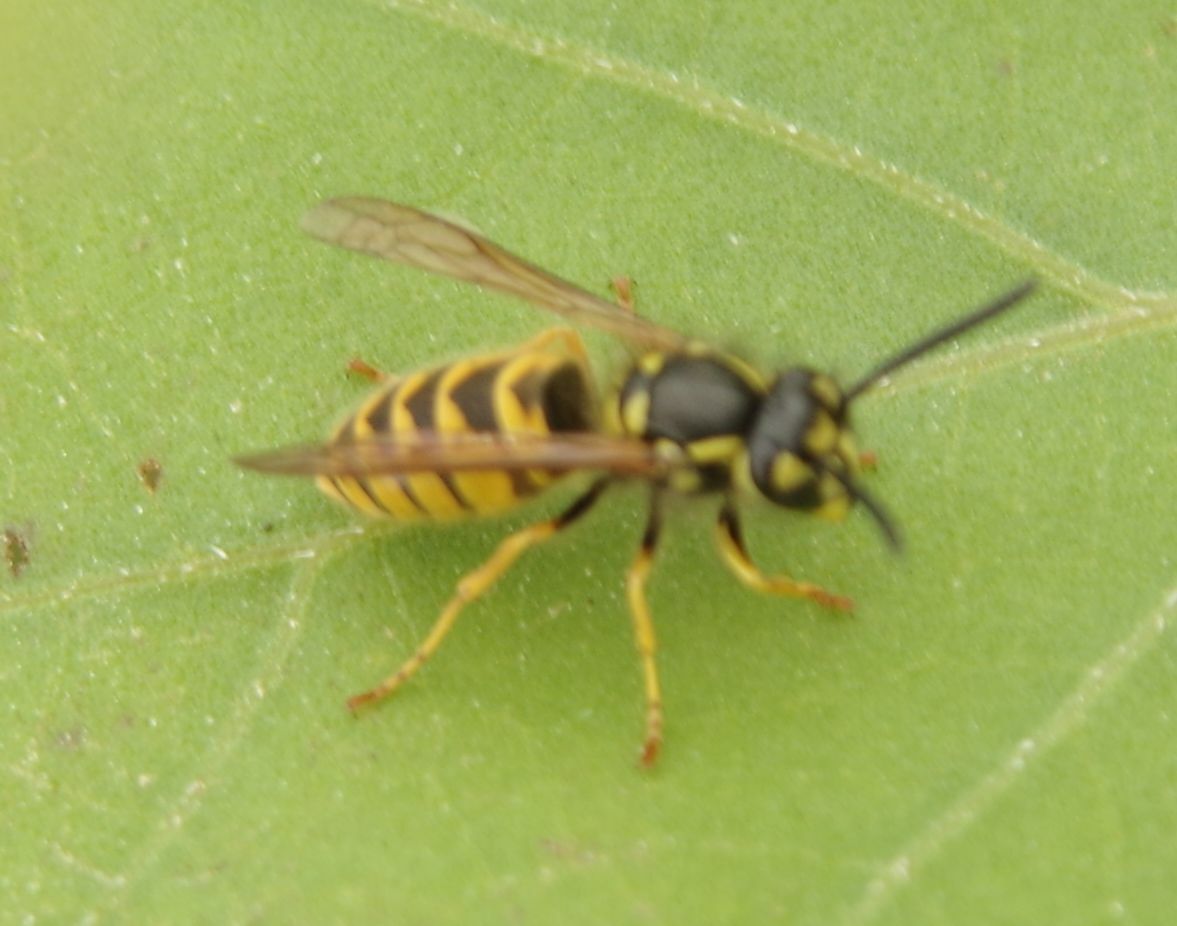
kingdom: Animalia
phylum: Arthropoda
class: Insecta
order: Hymenoptera
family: Vespidae
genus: Vespula
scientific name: Vespula vulgaris
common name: Common wasp
